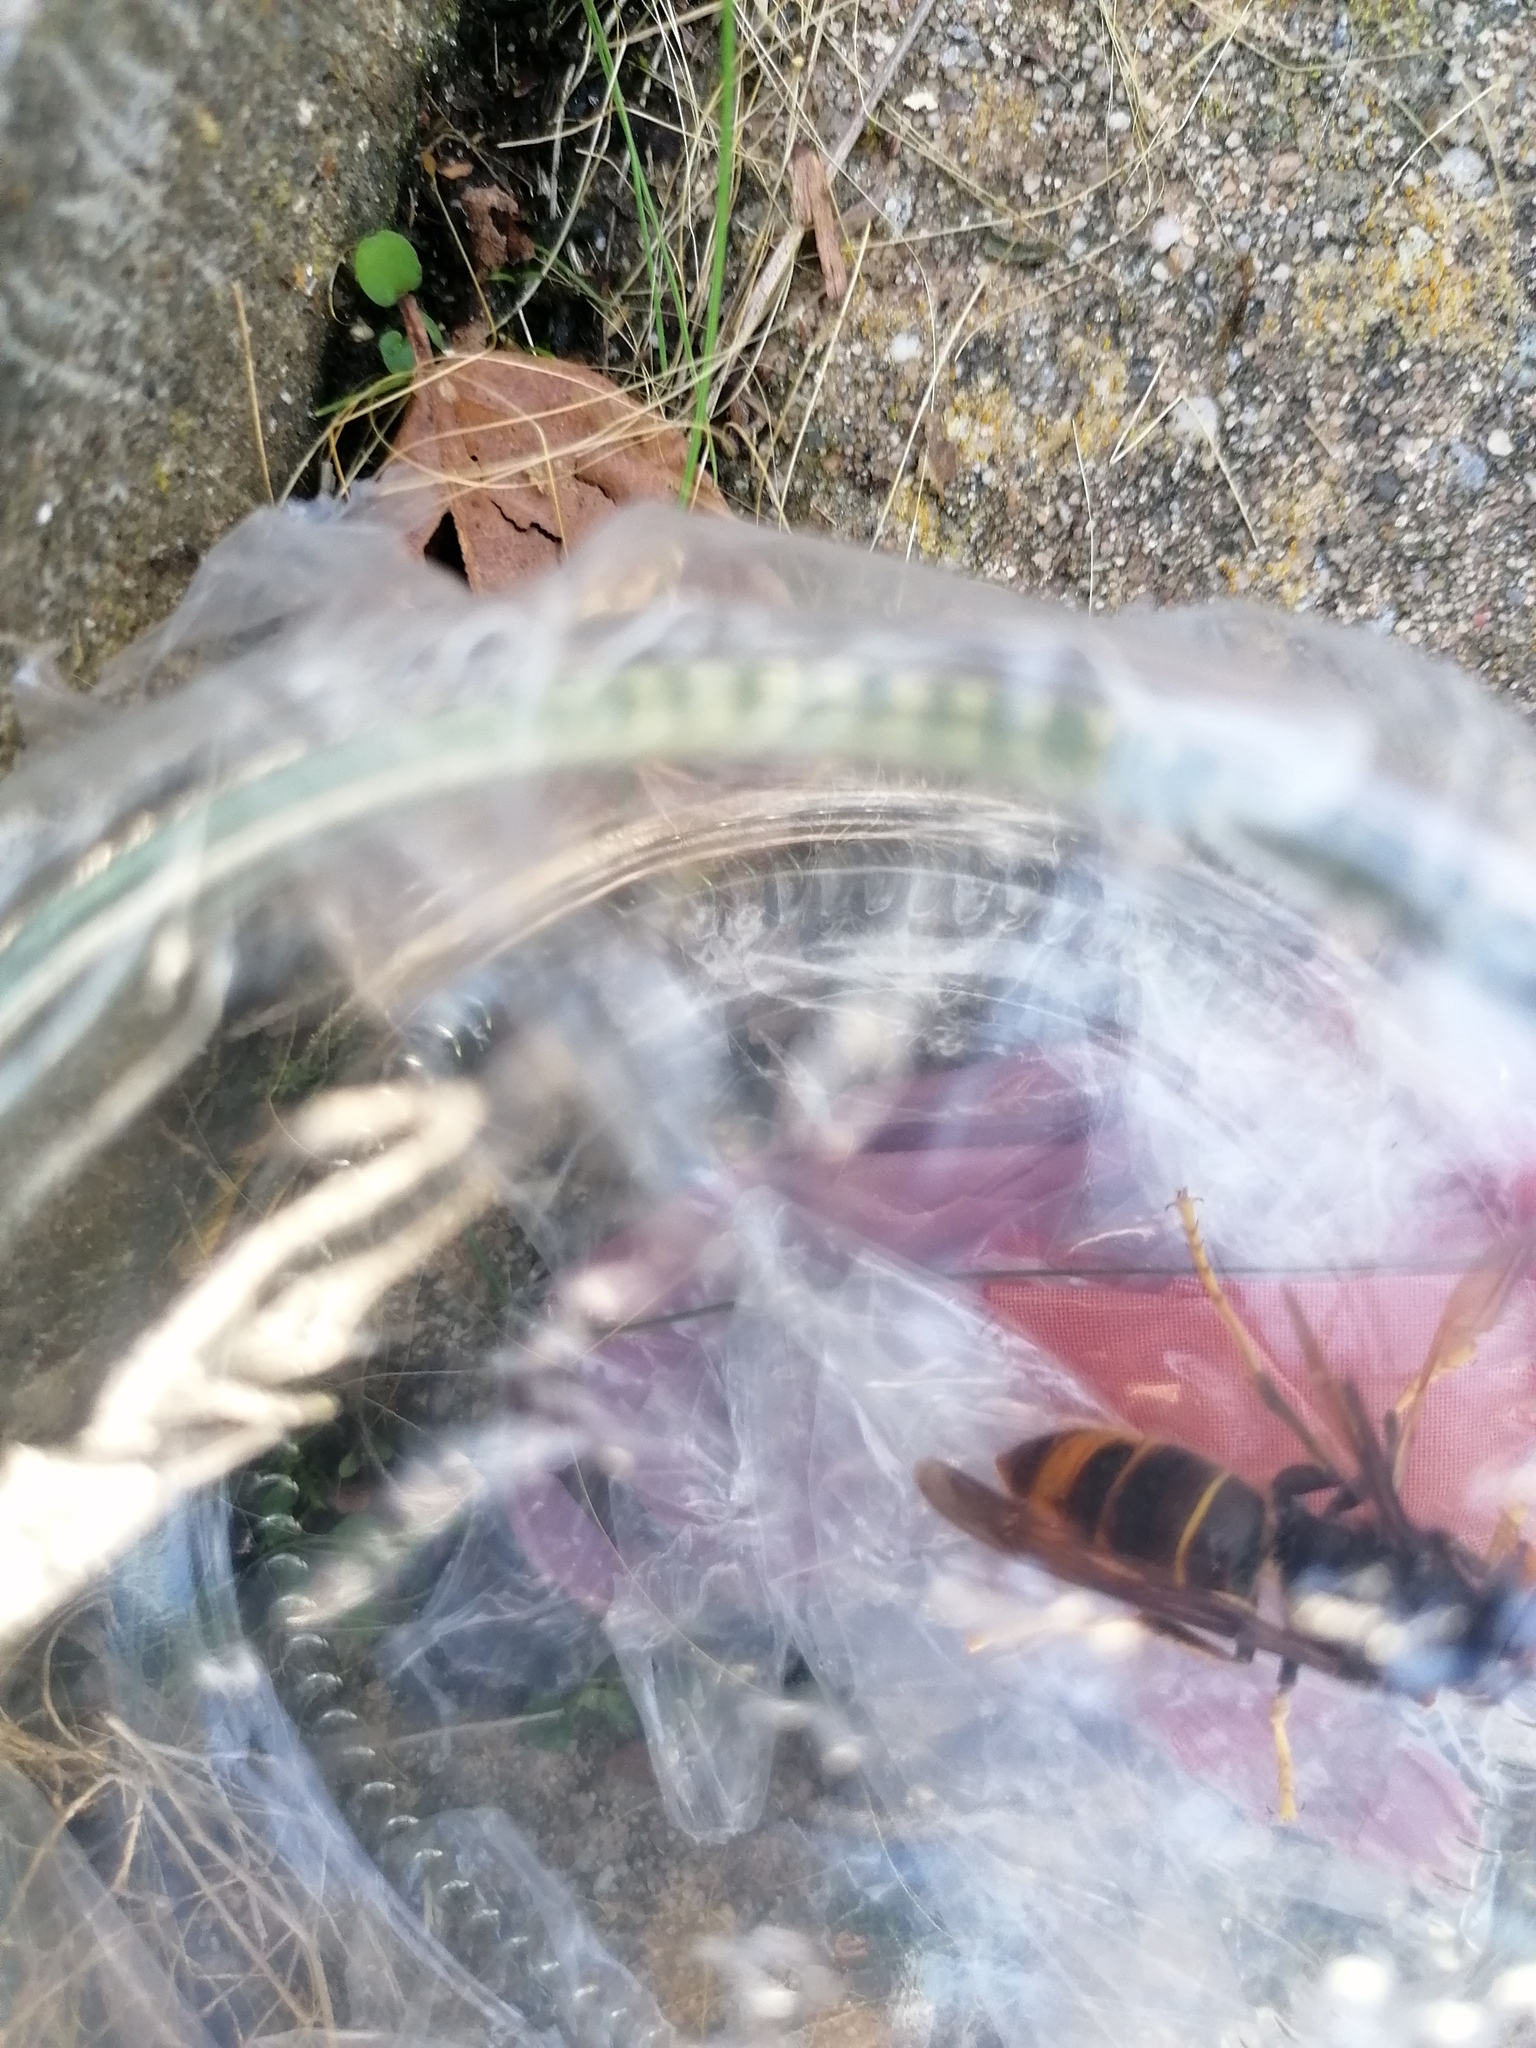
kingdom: Animalia
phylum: Arthropoda
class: Insecta
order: Hymenoptera
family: Vespidae
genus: Vespa
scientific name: Vespa velutina
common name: Asian hornet
